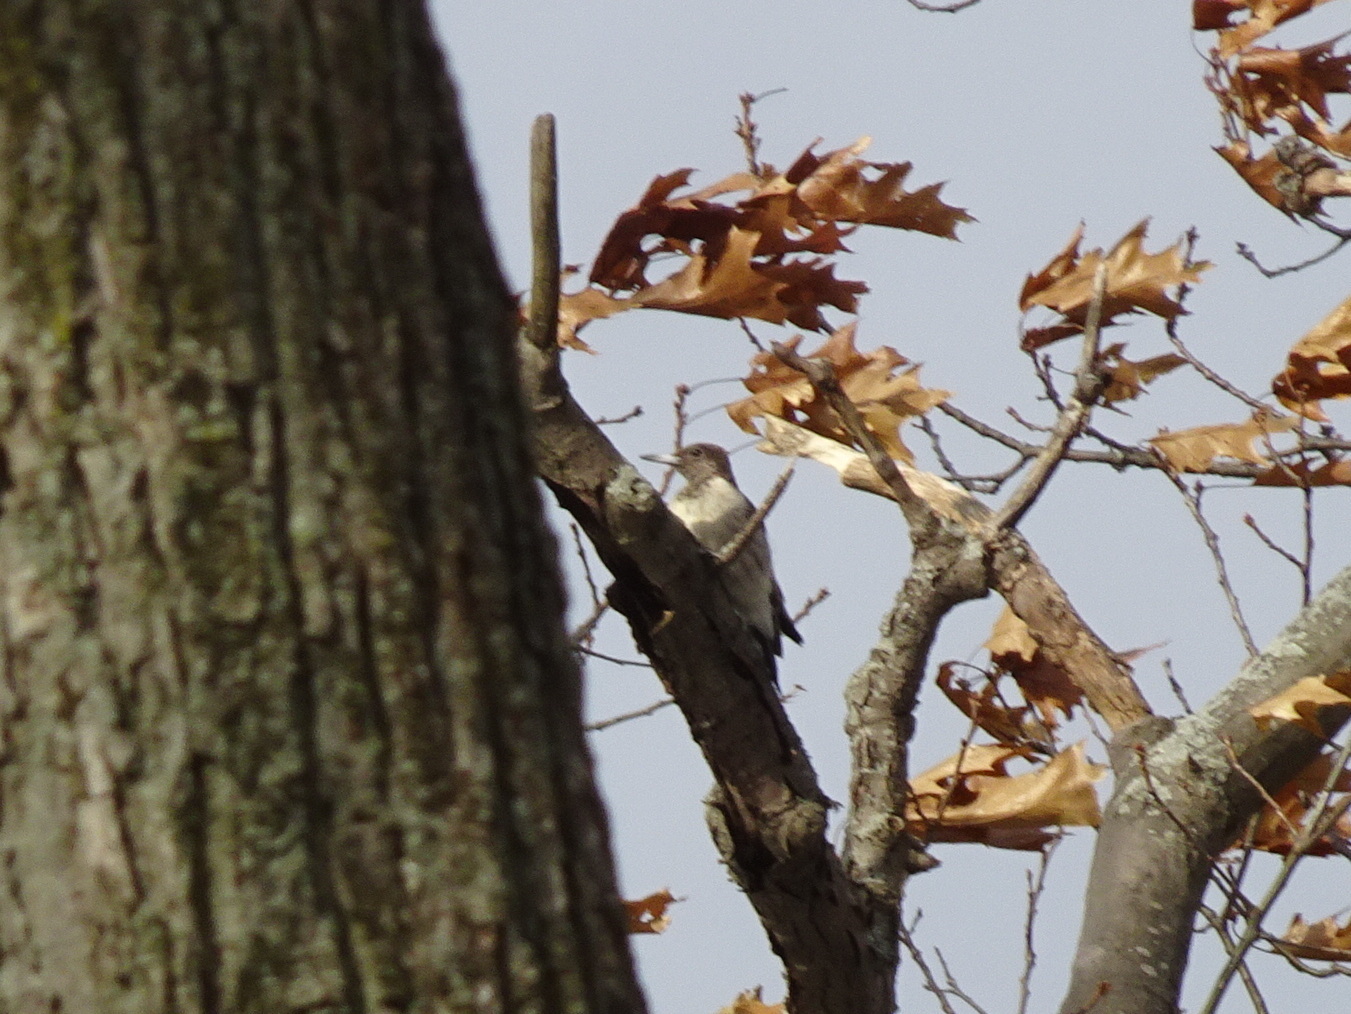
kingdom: Animalia
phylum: Chordata
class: Aves
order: Piciformes
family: Picidae
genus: Melanerpes
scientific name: Melanerpes erythrocephalus
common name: Red-headed woodpecker
